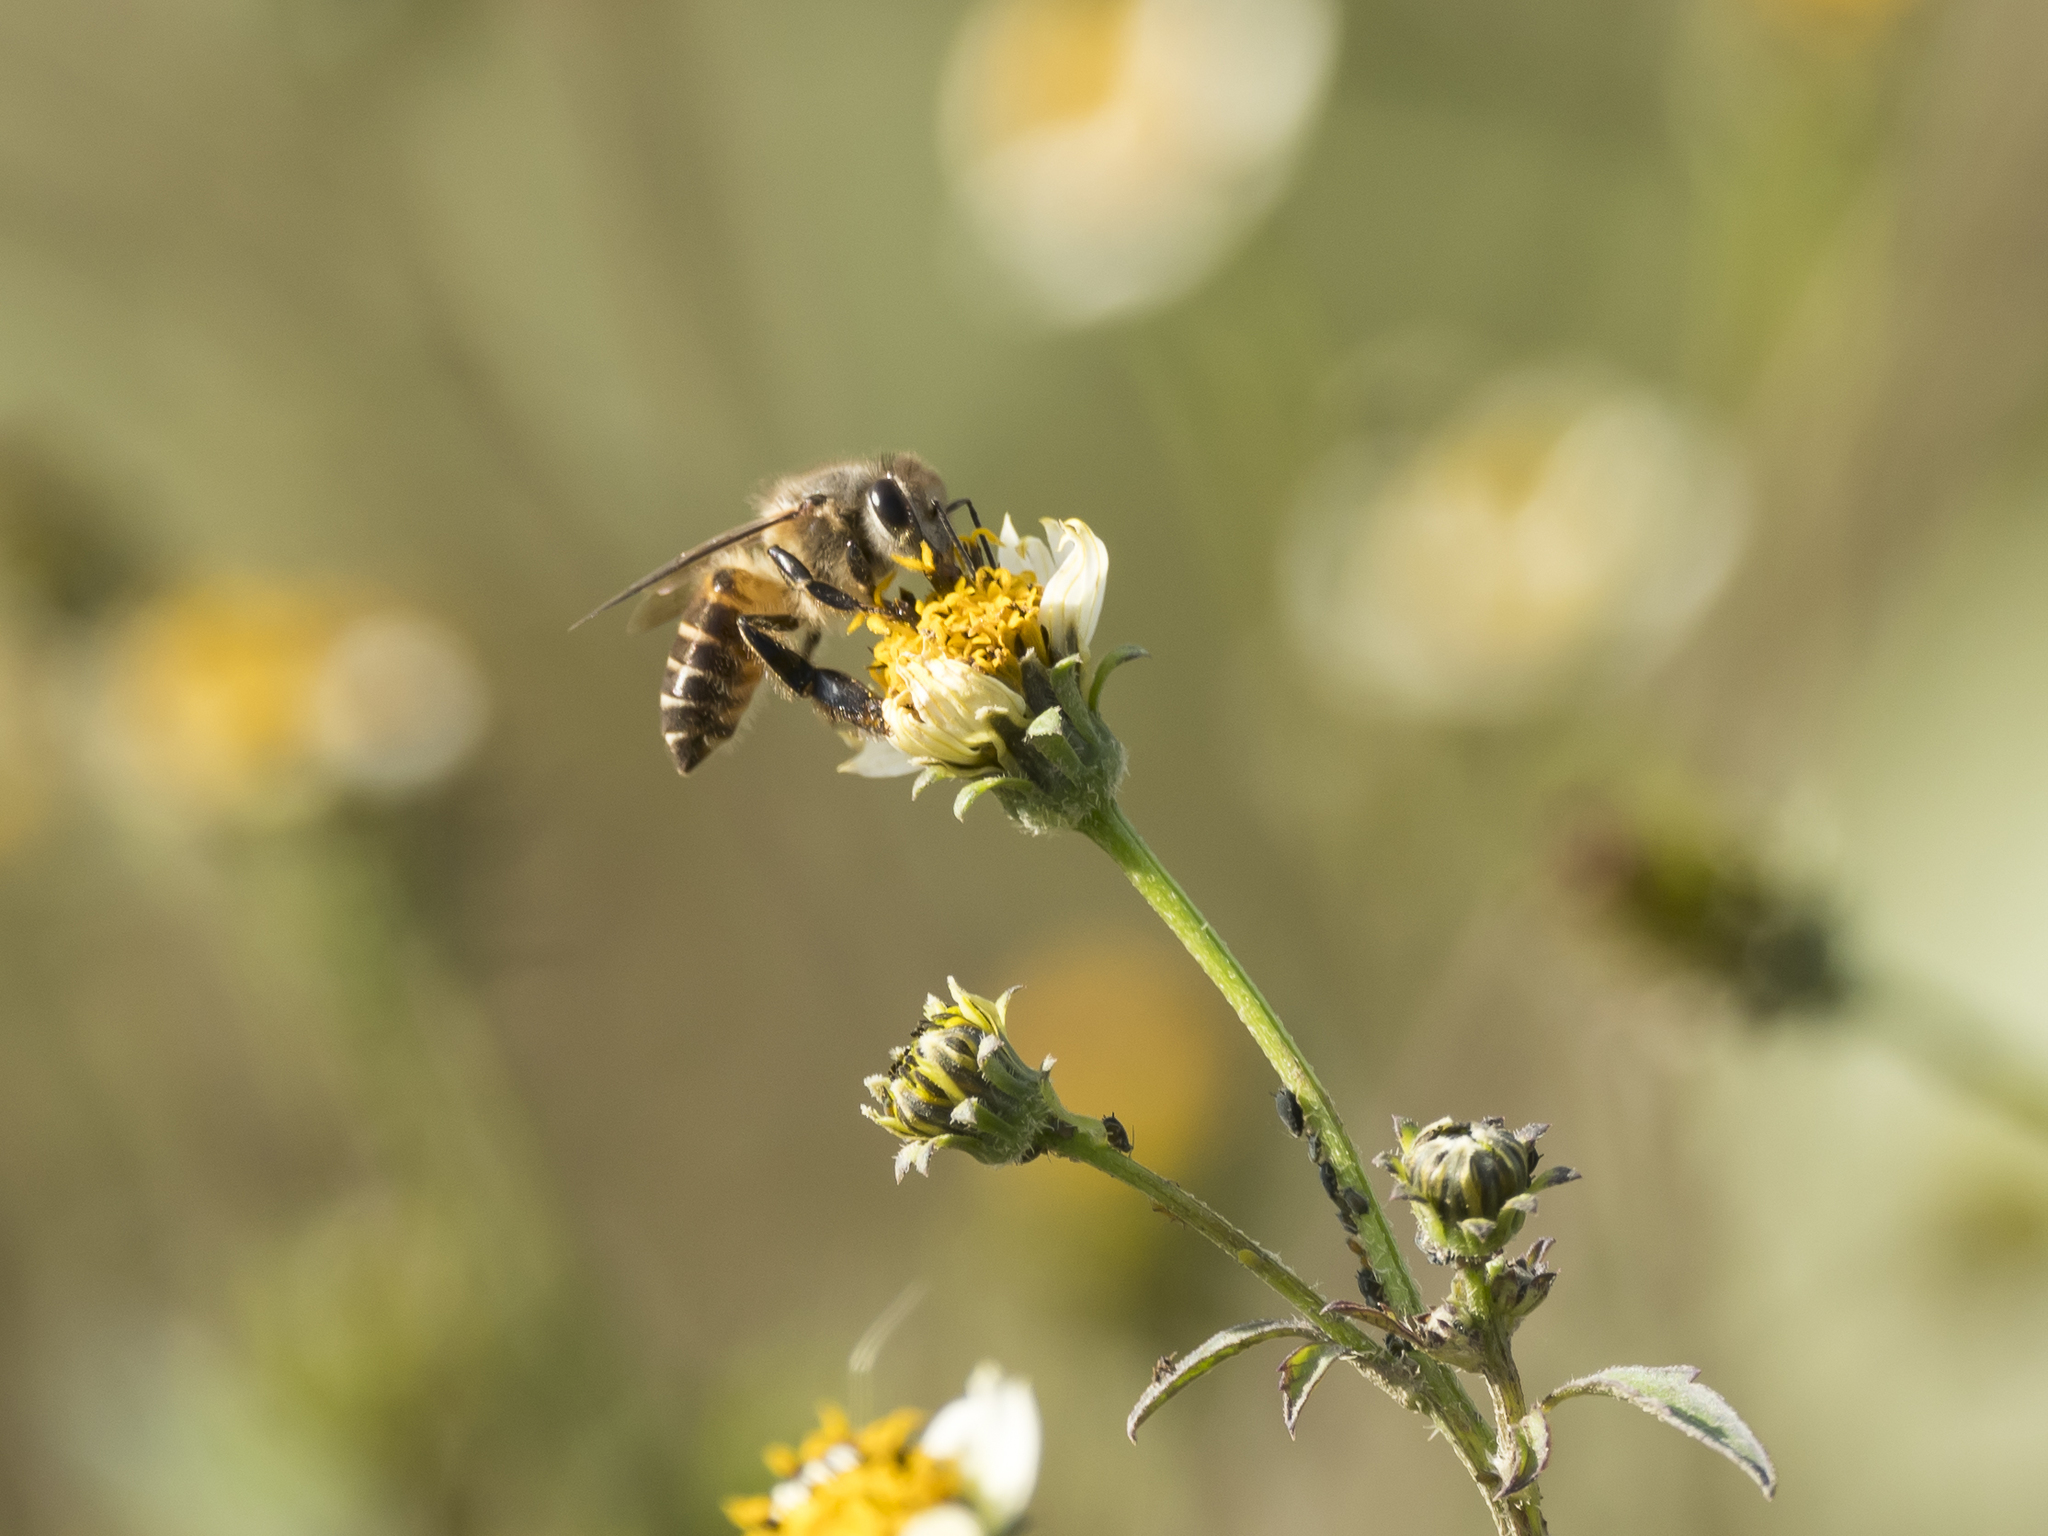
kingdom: Animalia
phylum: Arthropoda
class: Insecta
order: Hymenoptera
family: Apidae
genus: Apis
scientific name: Apis cerana
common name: Honey bee
